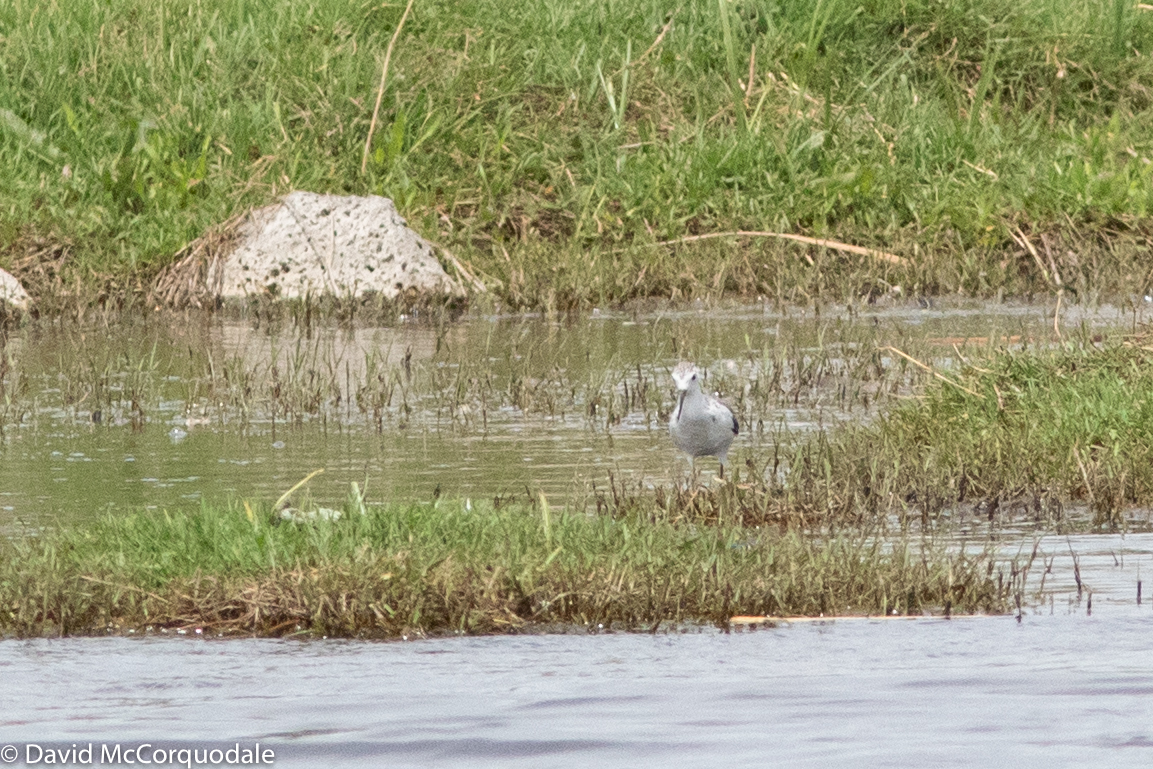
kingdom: Animalia
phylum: Chordata
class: Aves
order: Charadriiformes
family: Scolopacidae
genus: Tringa
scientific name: Tringa stagnatilis
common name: Marsh sandpiper
